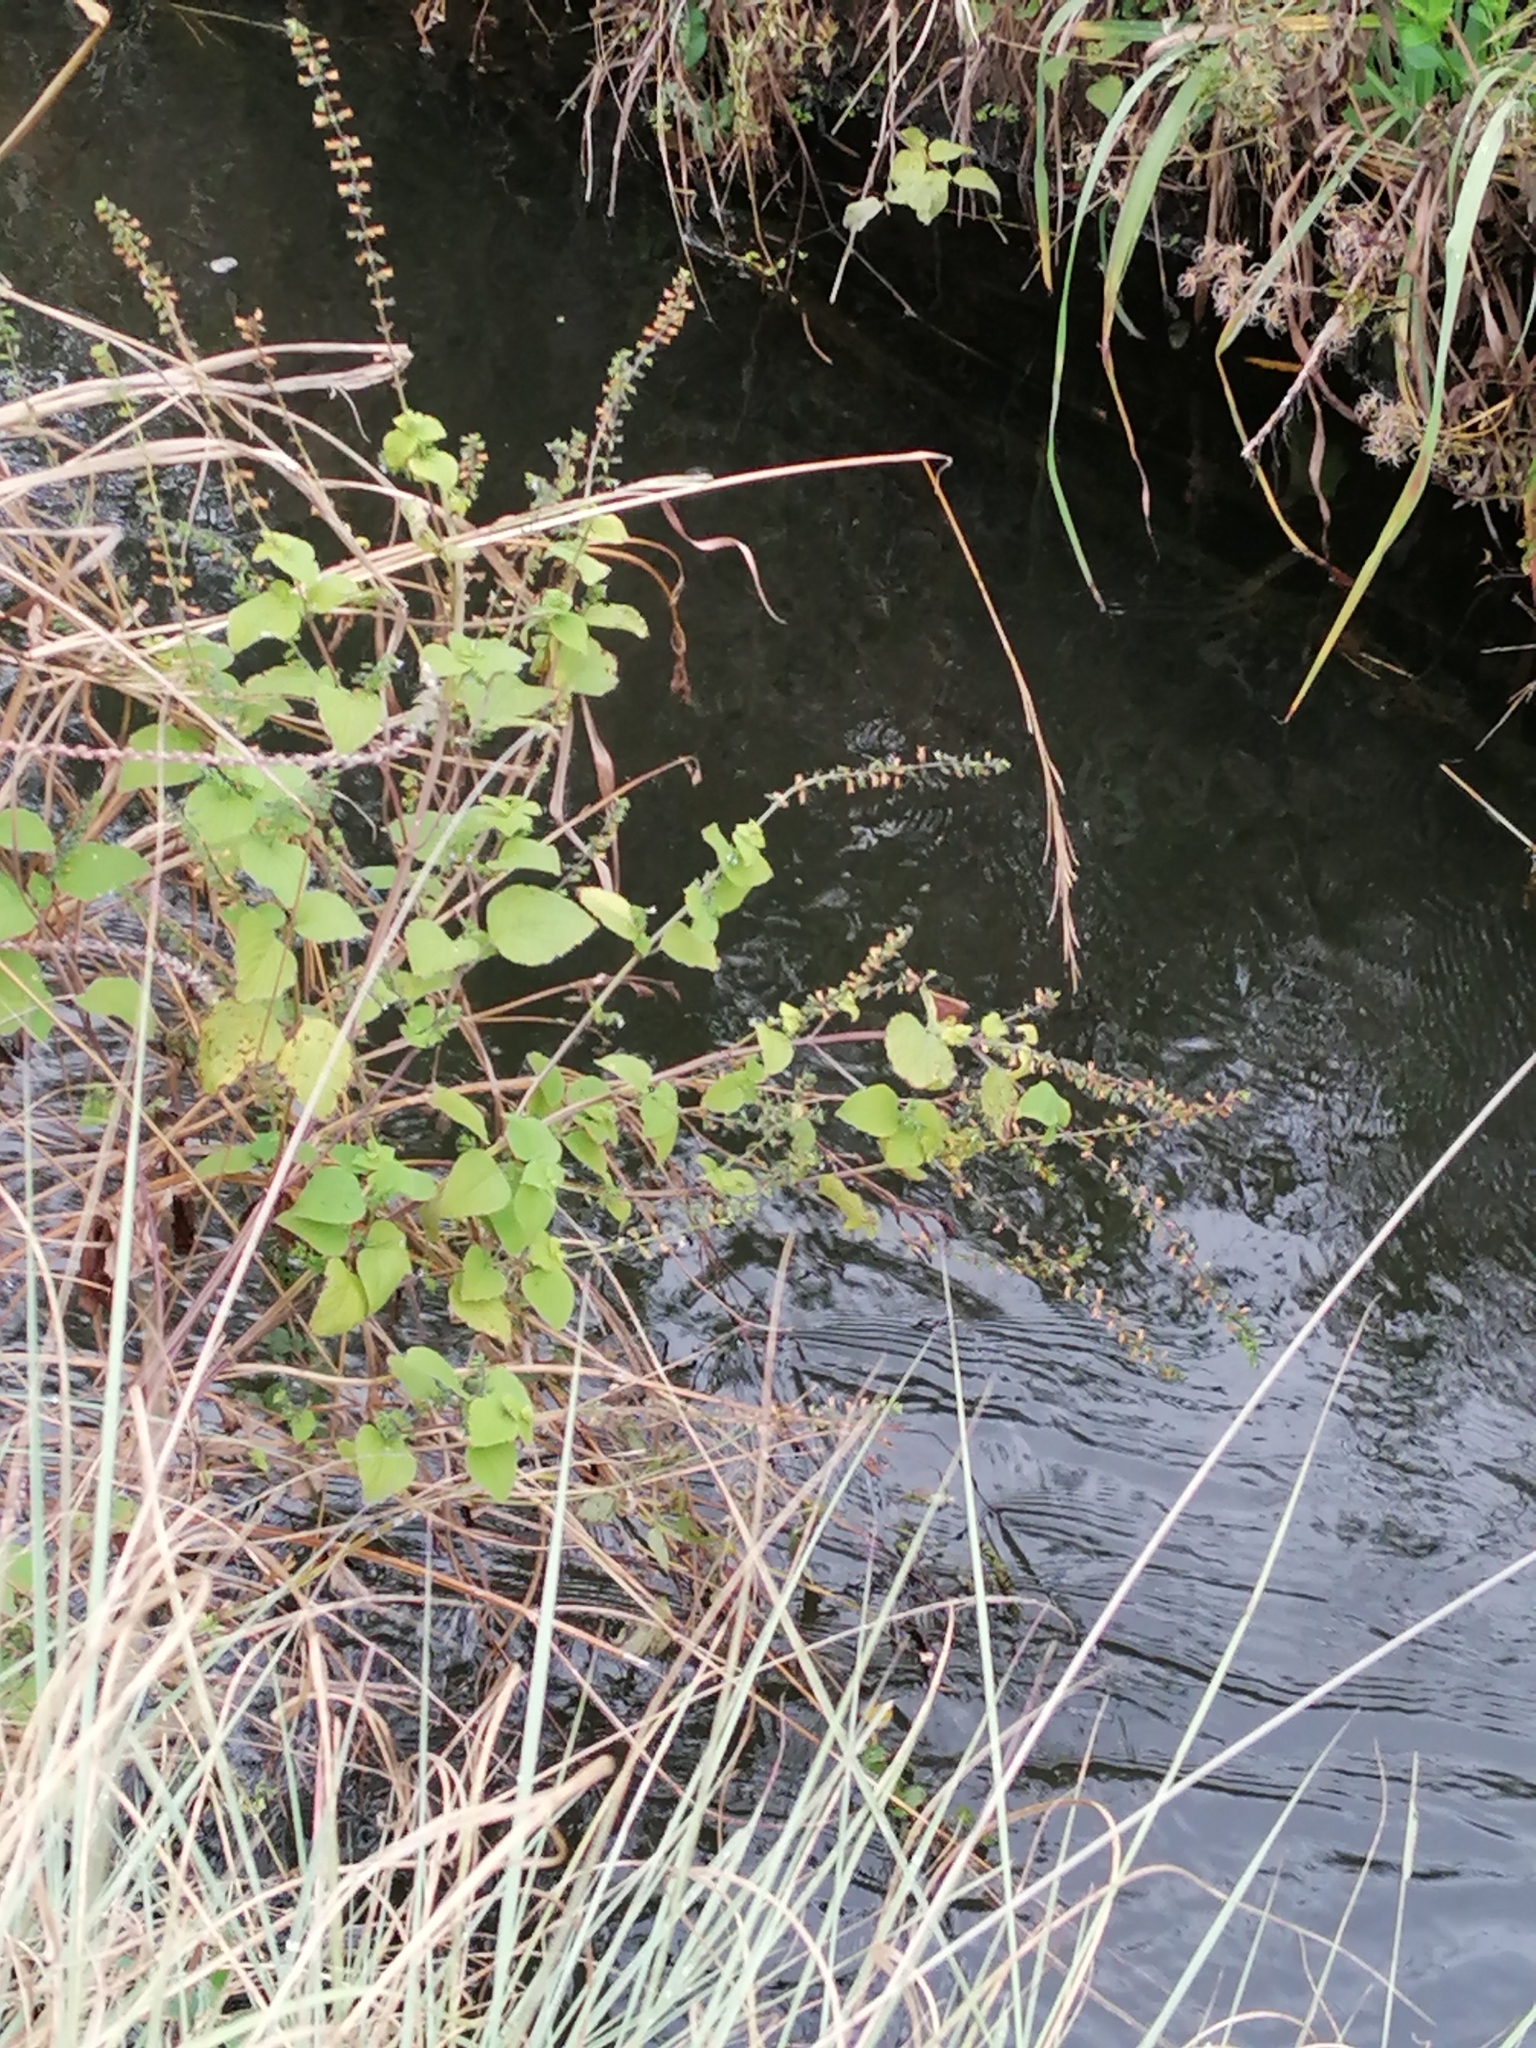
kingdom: Plantae
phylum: Tracheophyta
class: Magnoliopsida
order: Lamiales
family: Lamiaceae
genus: Salvia
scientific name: Salvia tiliifolia
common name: Lindenleaf sage
